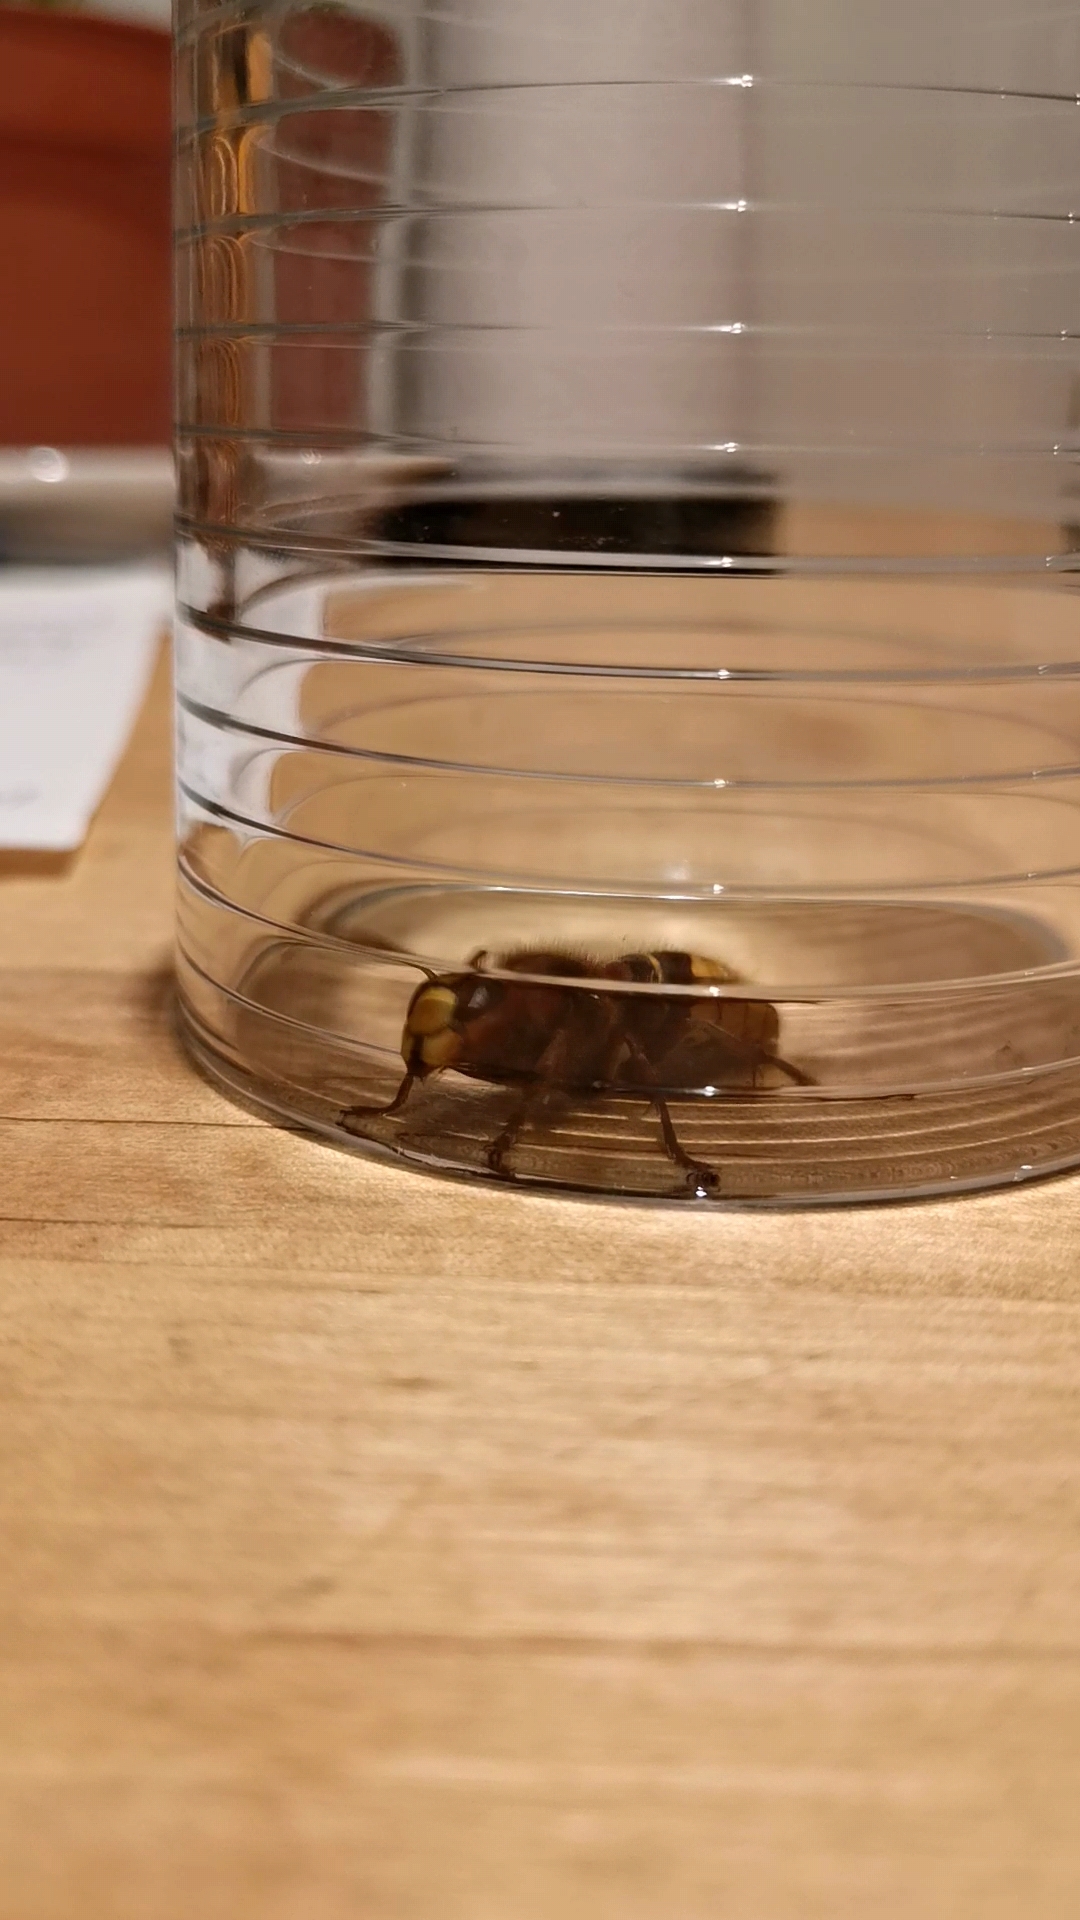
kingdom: Animalia
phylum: Arthropoda
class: Insecta
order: Hymenoptera
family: Vespidae
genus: Vespa
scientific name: Vespa crabro
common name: Hornet
